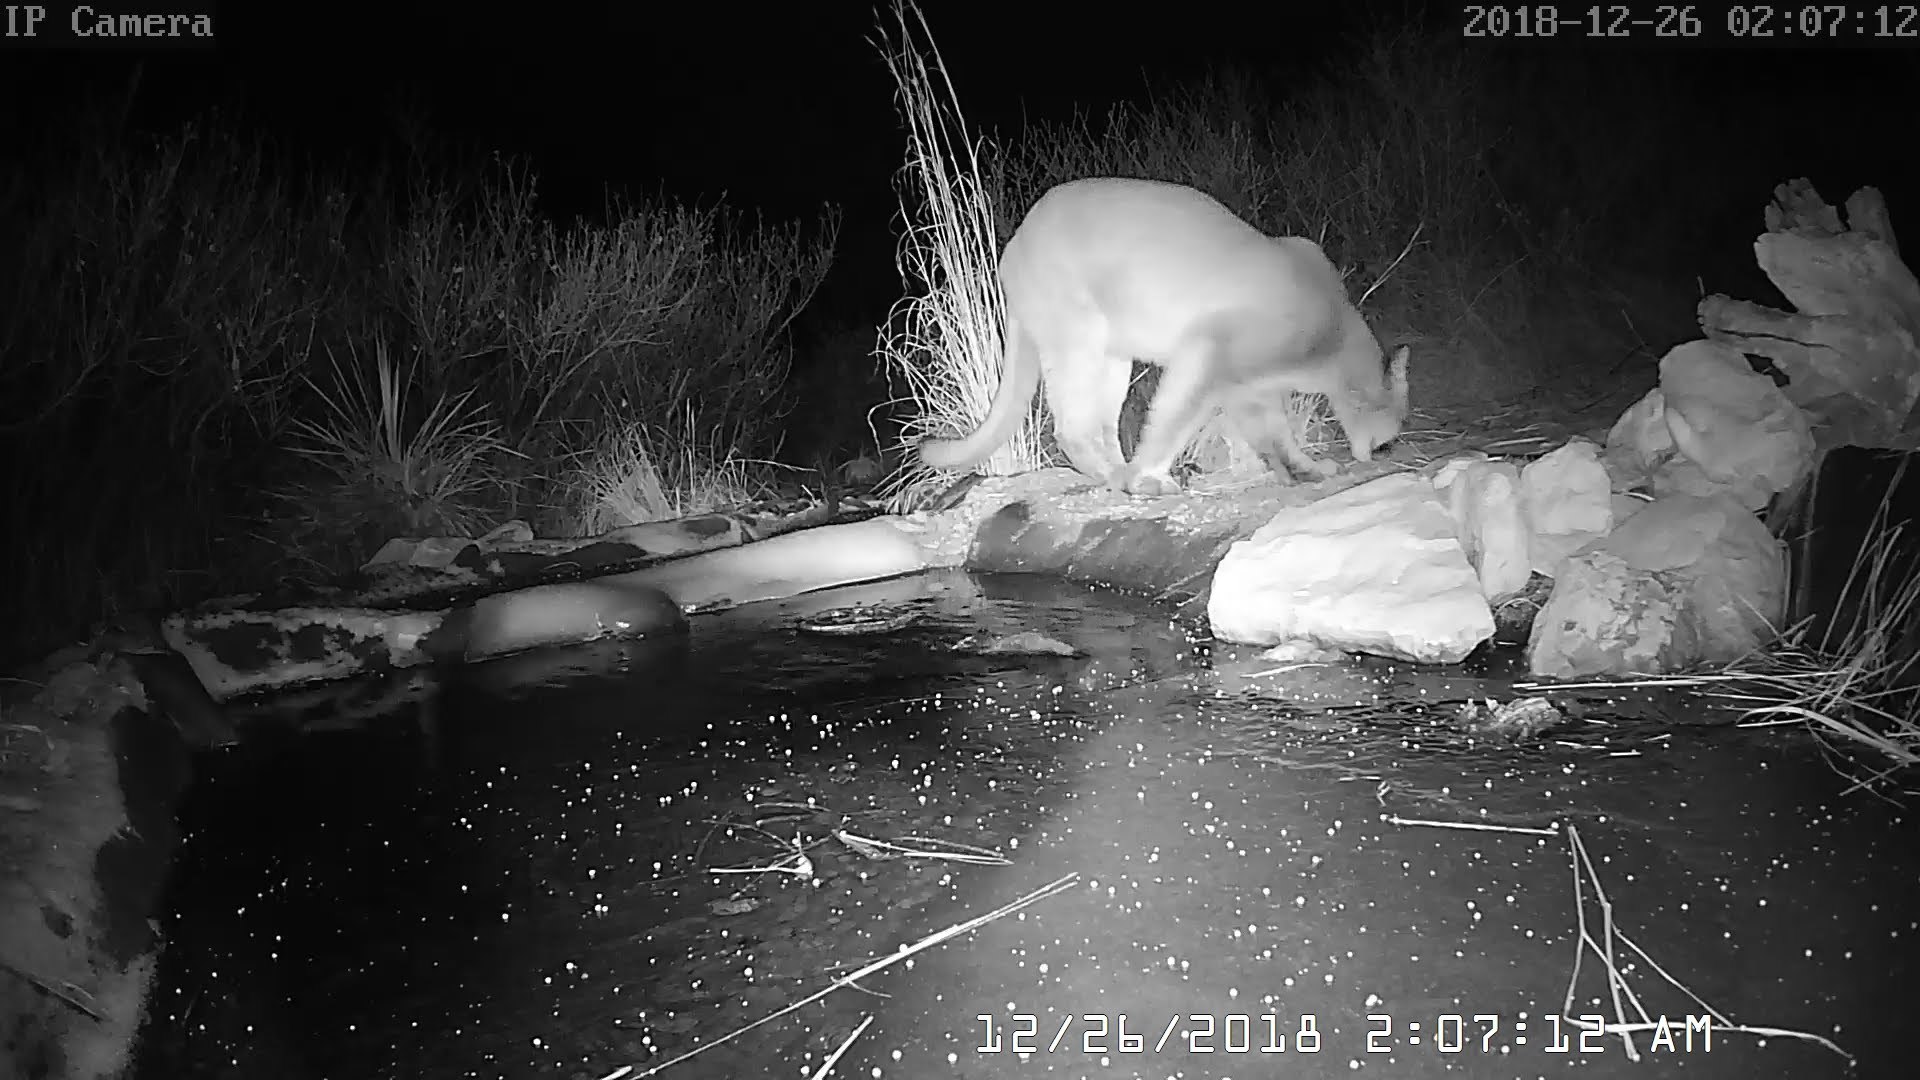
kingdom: Animalia
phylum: Chordata
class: Mammalia
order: Carnivora
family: Felidae
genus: Puma
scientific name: Puma concolor
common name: Puma
